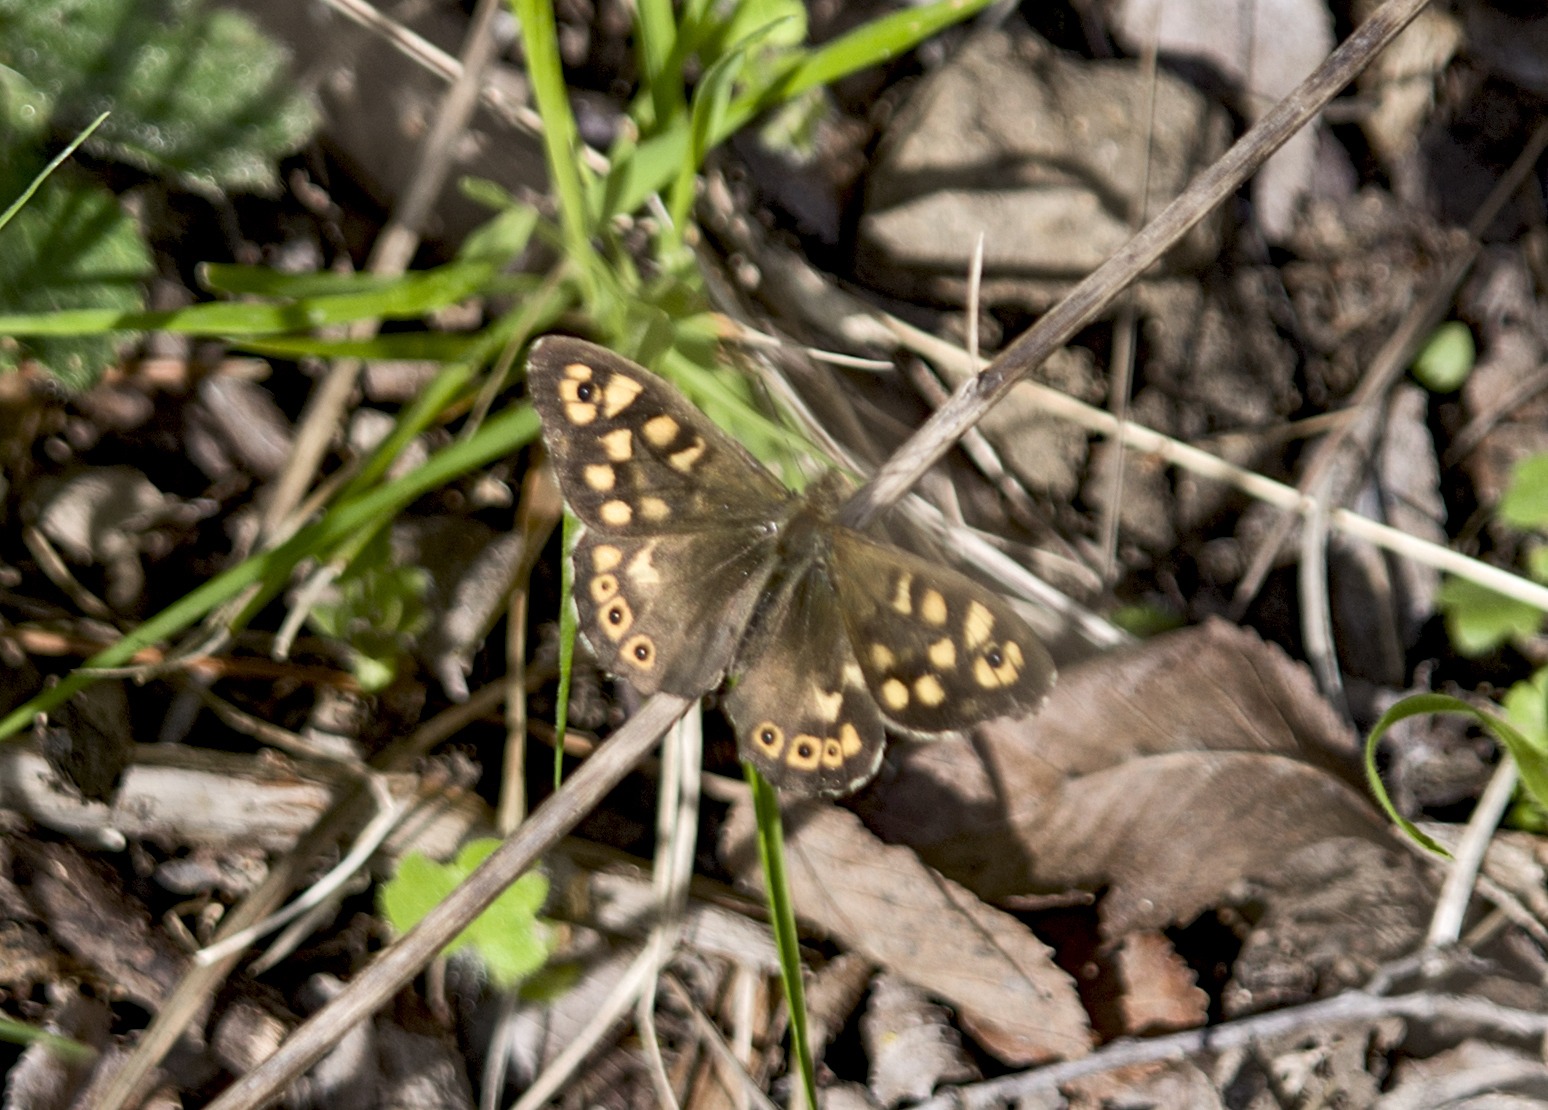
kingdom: Animalia
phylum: Arthropoda
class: Insecta
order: Lepidoptera
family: Nymphalidae
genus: Pararge
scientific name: Pararge aegeria
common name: Speckled wood
